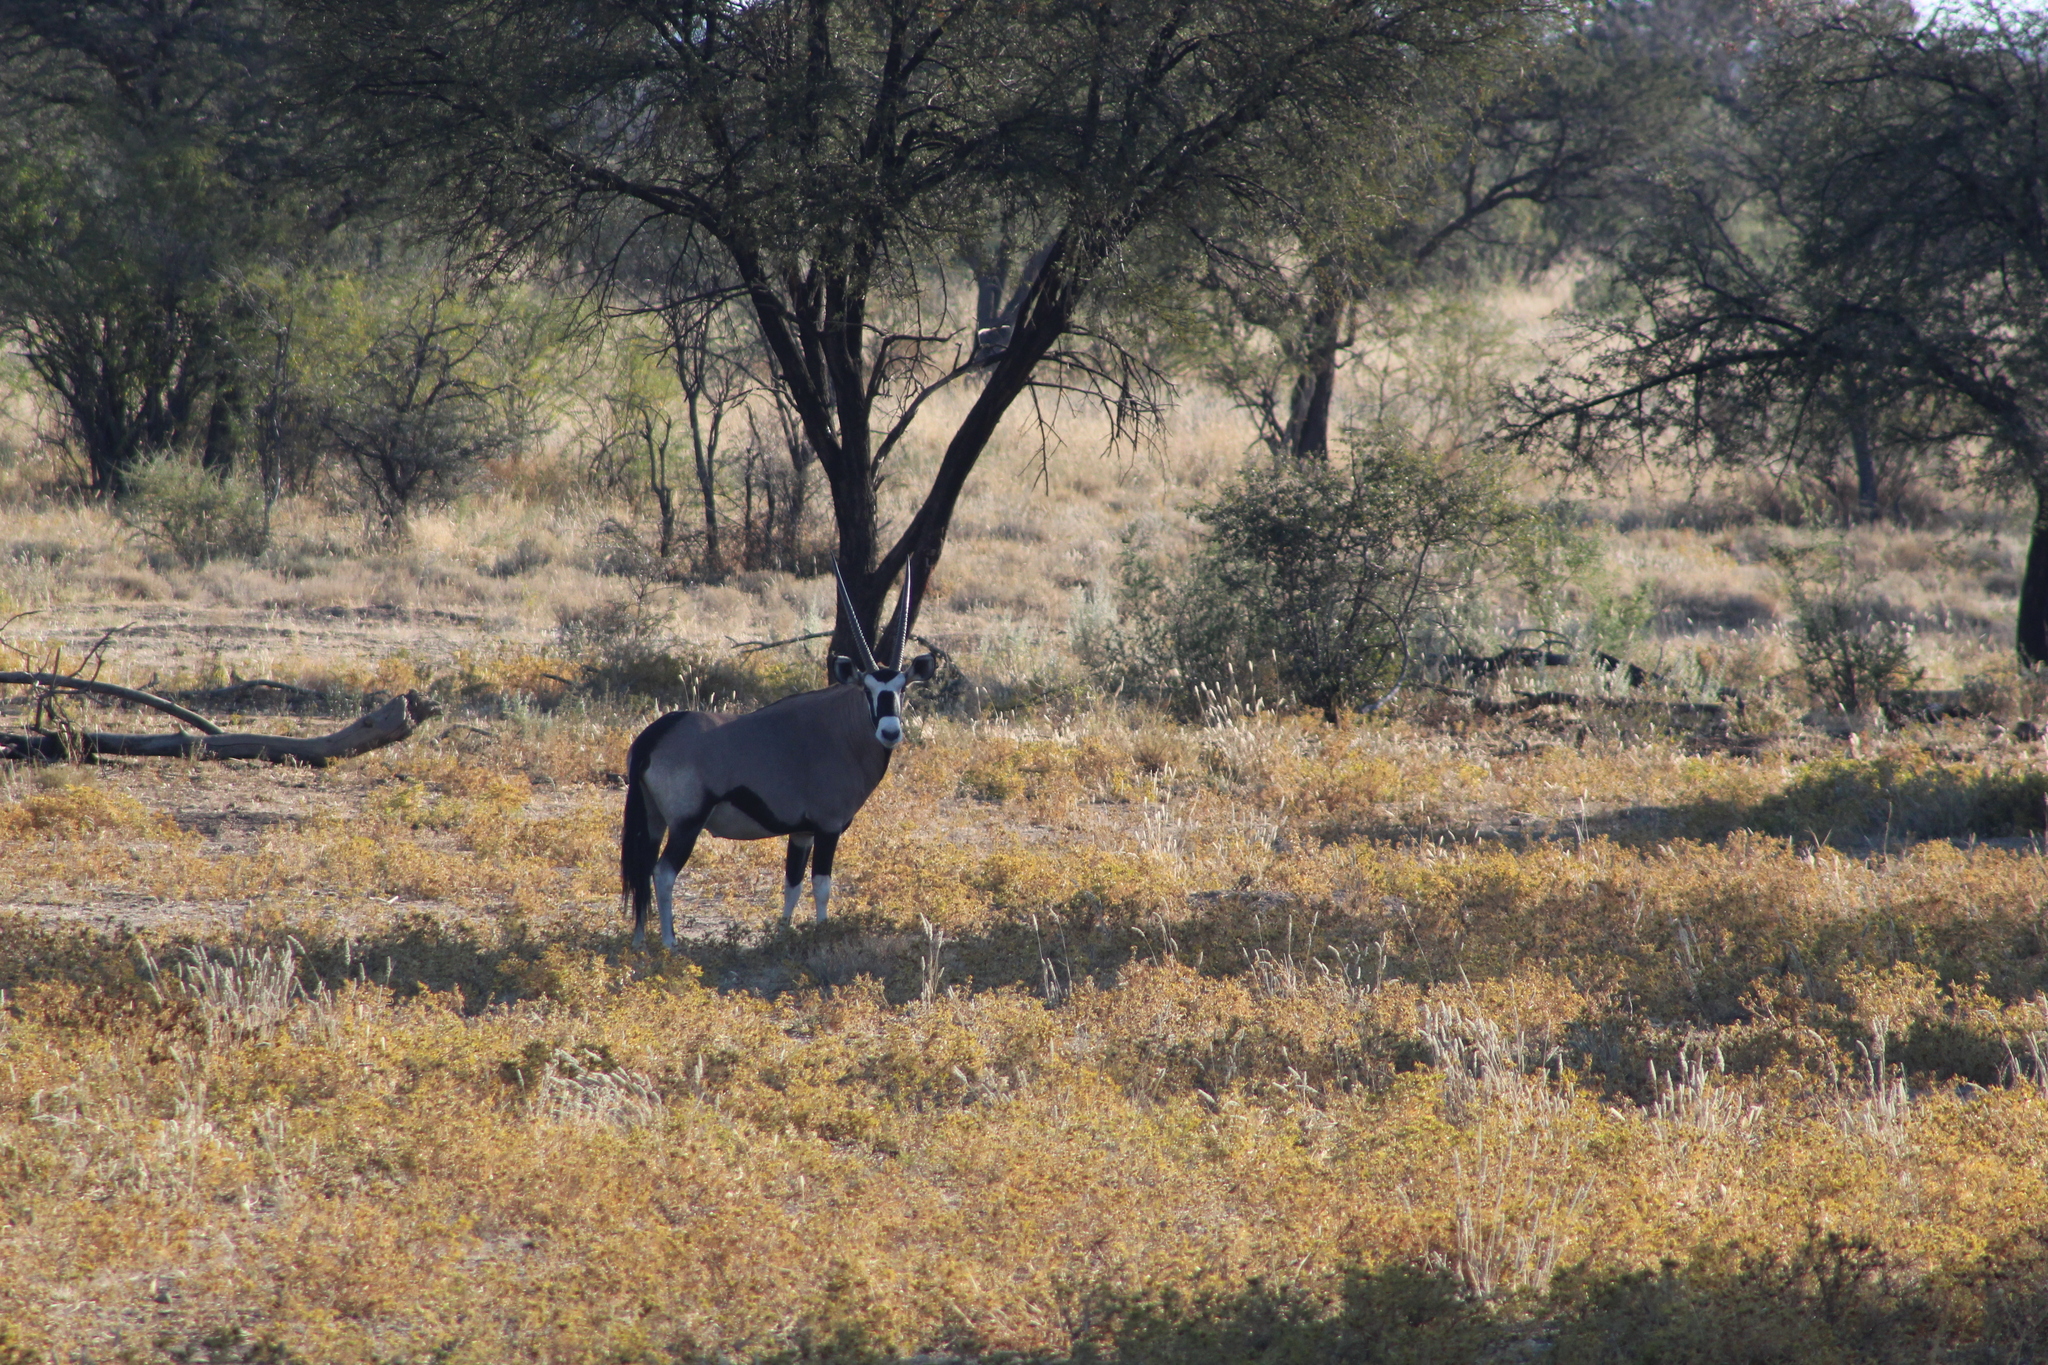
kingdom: Animalia
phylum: Chordata
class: Mammalia
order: Artiodactyla
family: Bovidae
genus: Oryx
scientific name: Oryx gazella
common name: Gemsbok
